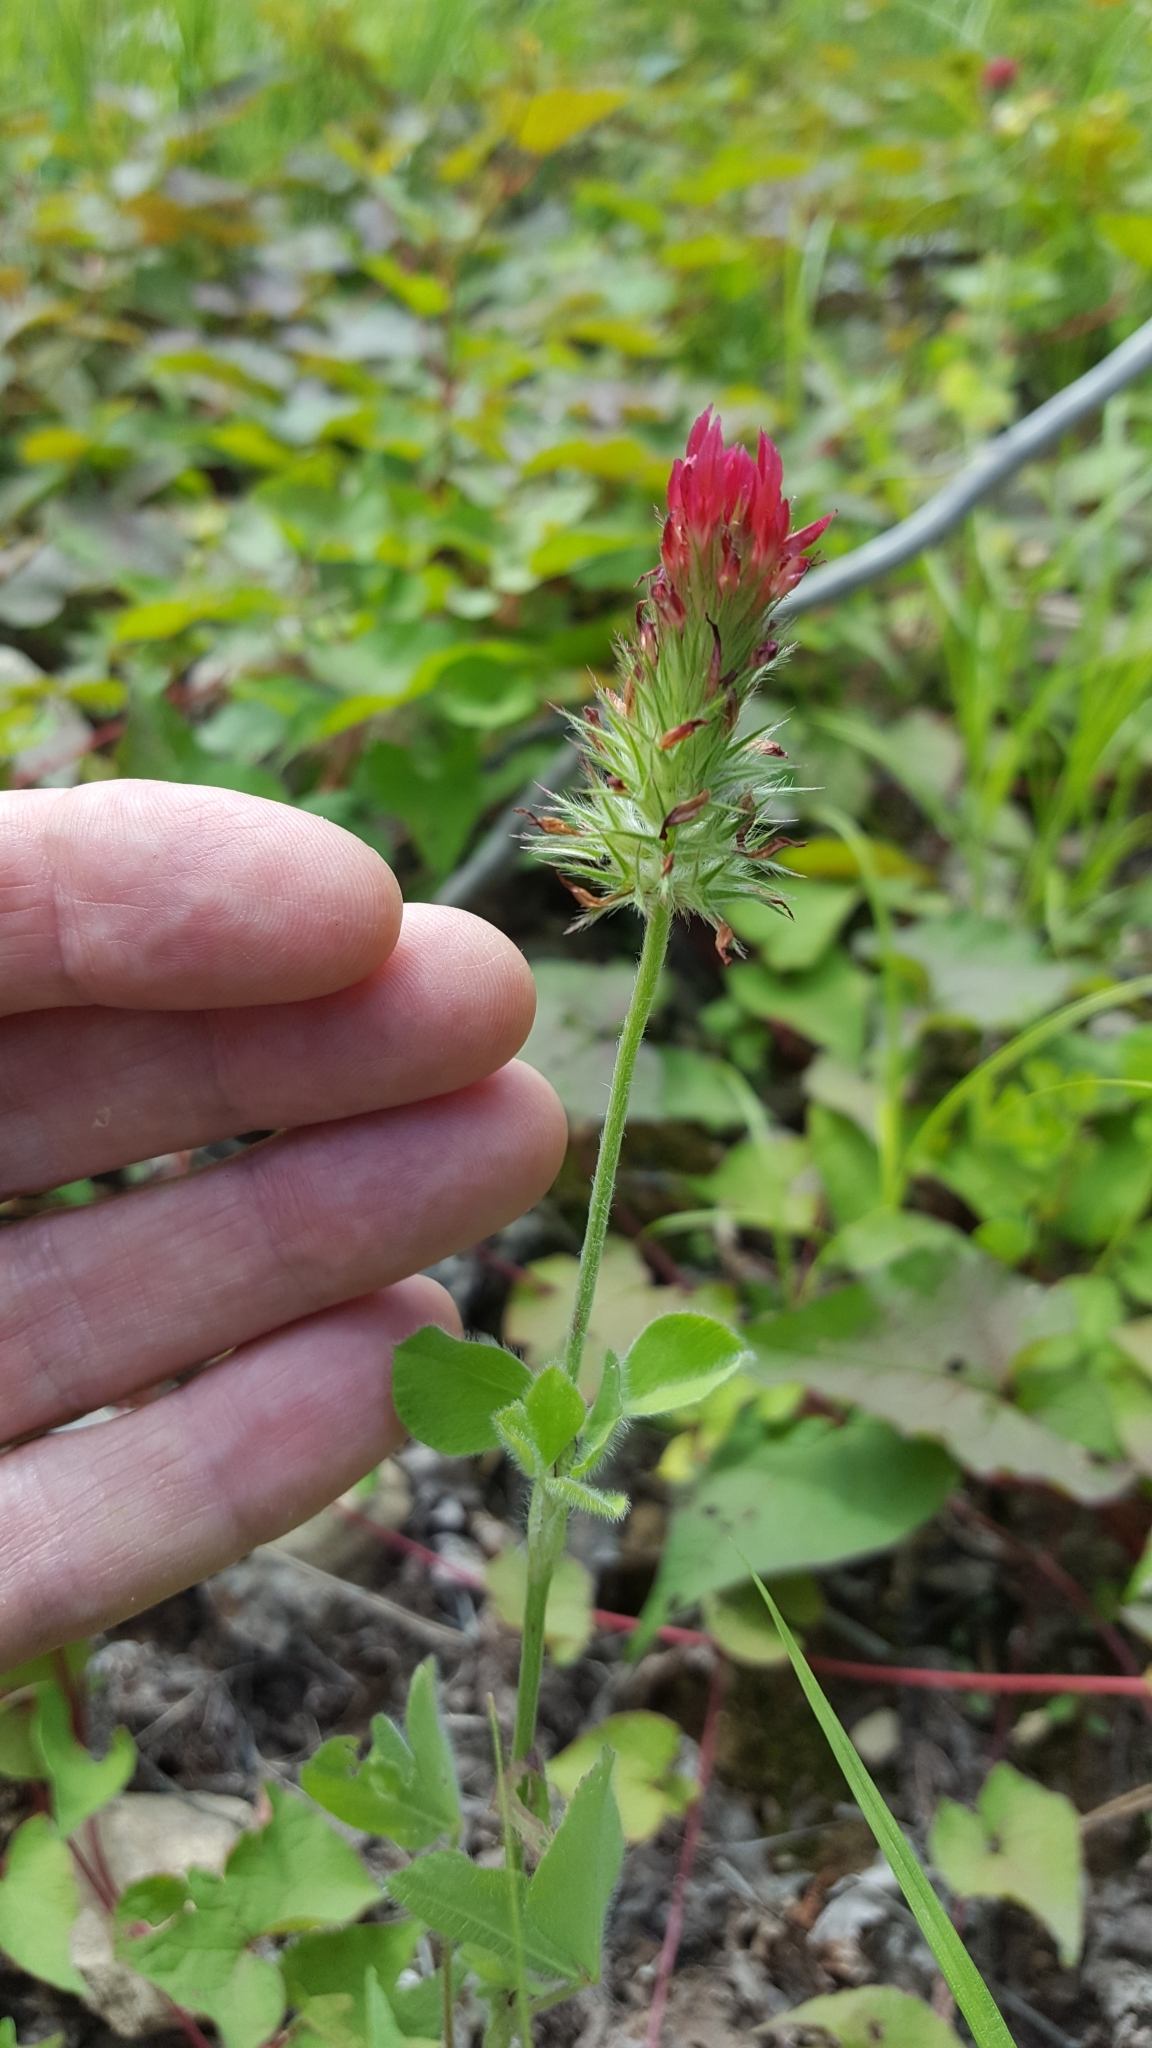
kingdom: Plantae
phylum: Tracheophyta
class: Magnoliopsida
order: Fabales
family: Fabaceae
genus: Trifolium
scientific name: Trifolium incarnatum
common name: Crimson clover
